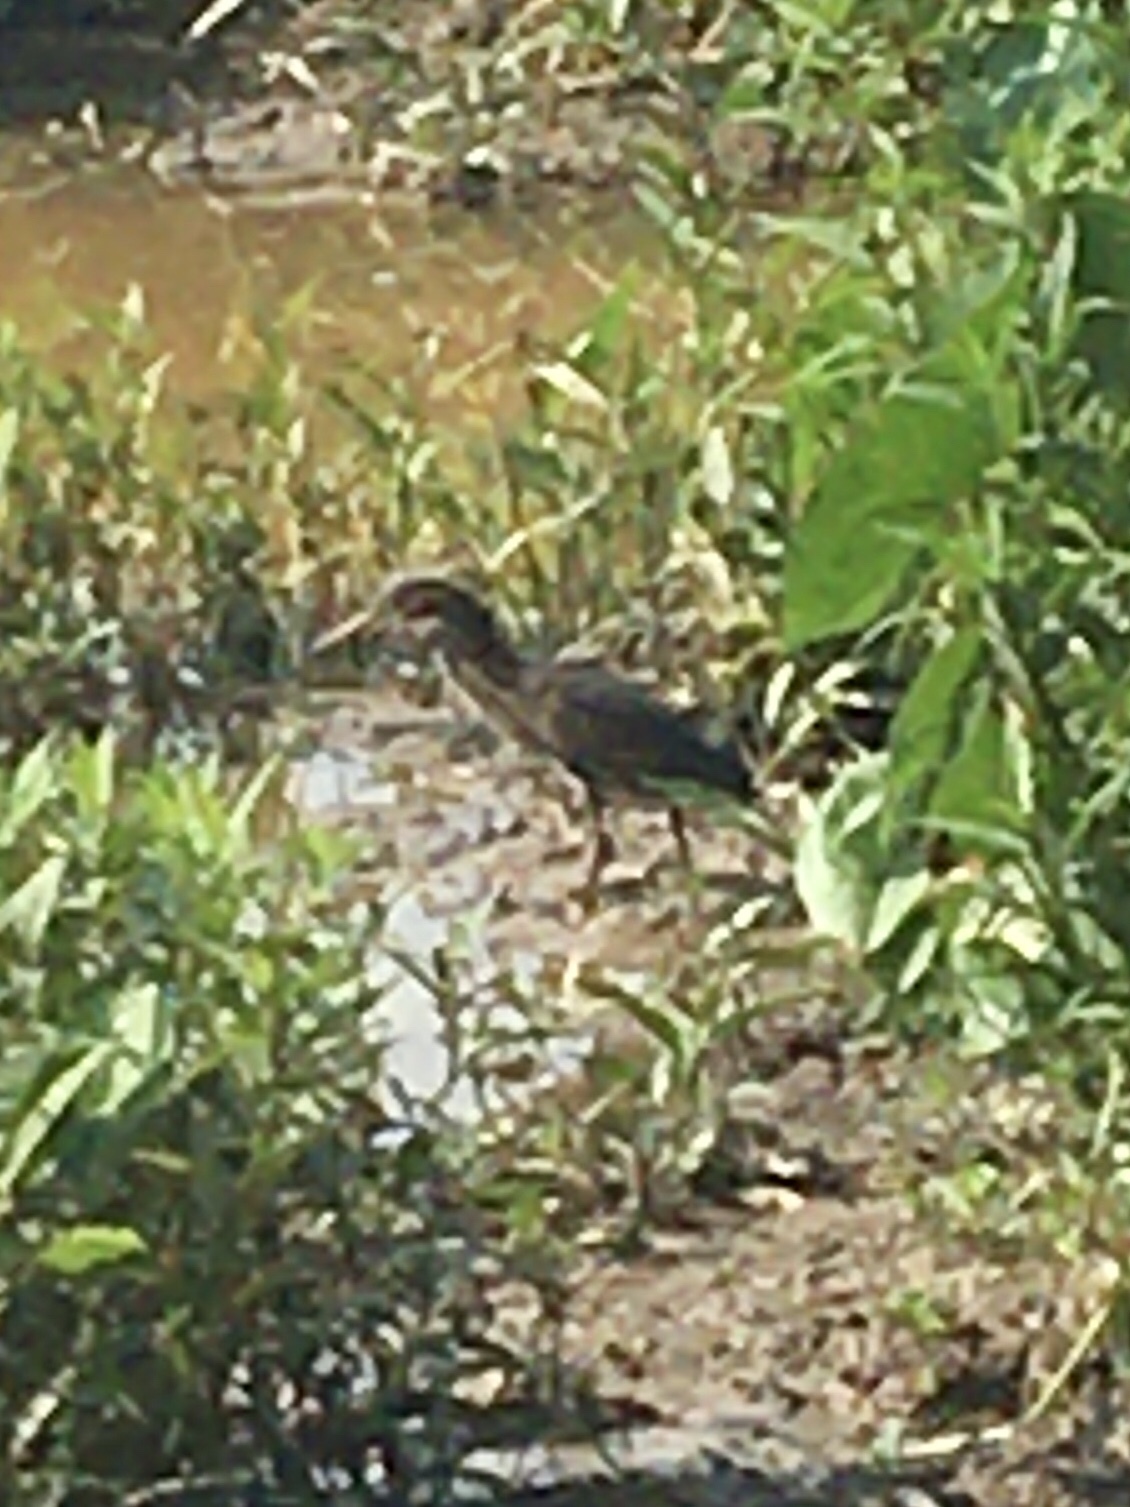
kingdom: Animalia
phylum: Chordata
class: Aves
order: Pelecaniformes
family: Ardeidae
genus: Butorides
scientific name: Butorides virescens
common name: Green heron
